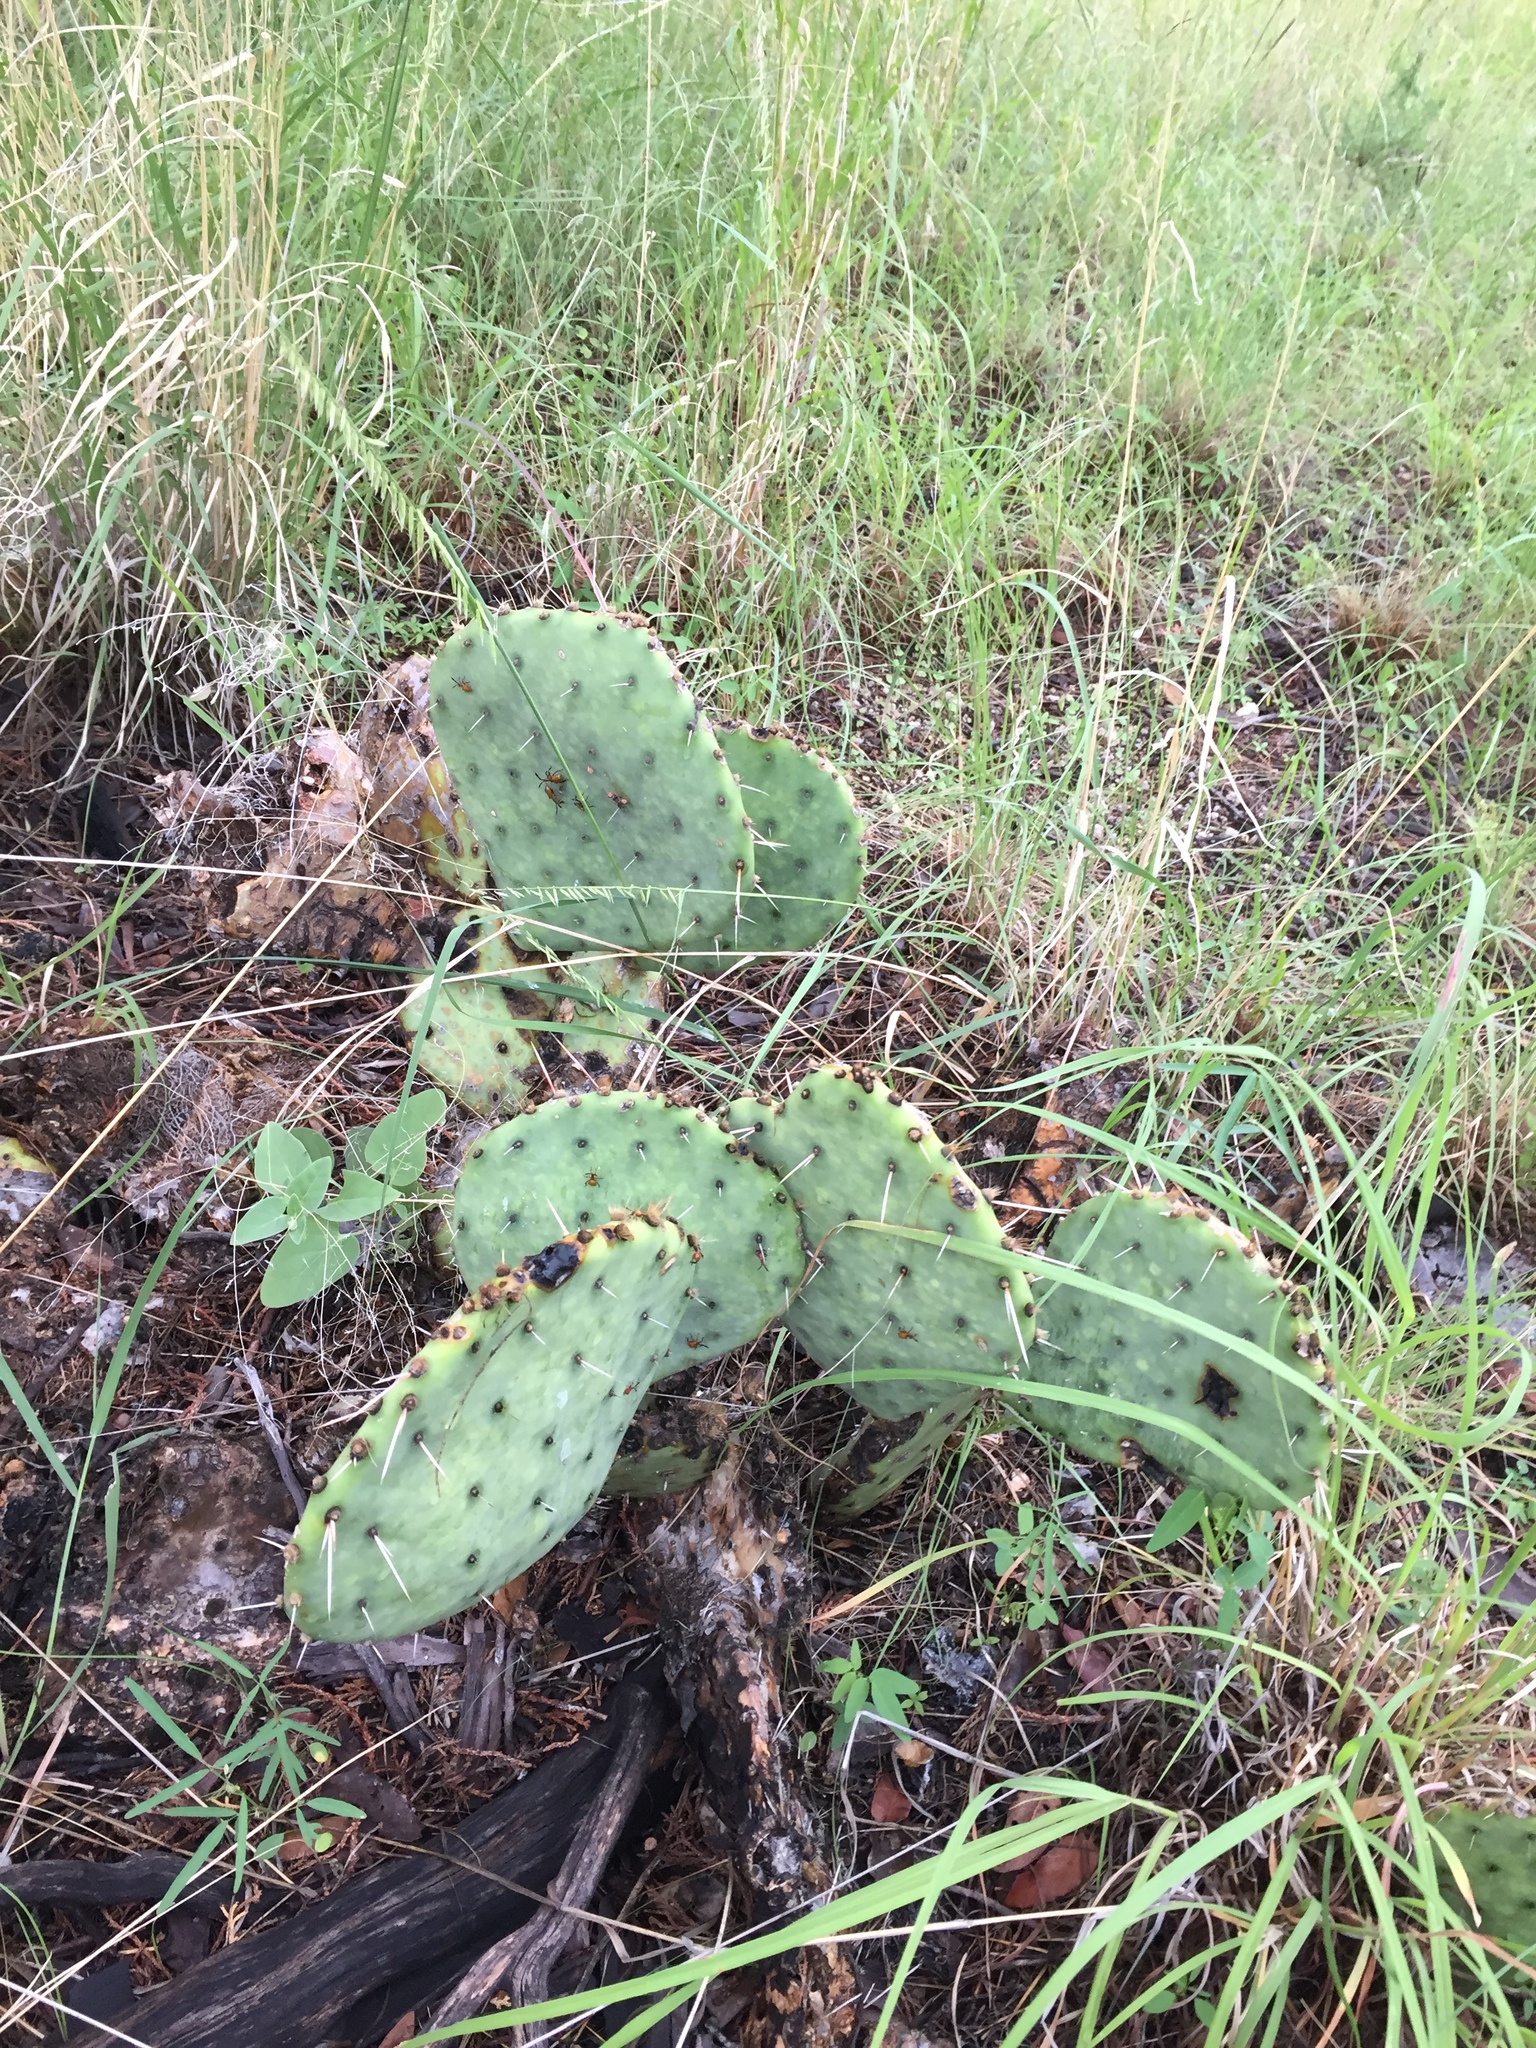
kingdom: Plantae
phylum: Tracheophyta
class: Magnoliopsida
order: Caryophyllales
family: Cactaceae
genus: Opuntia
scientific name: Opuntia chlorotica
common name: Dollar-joint prickly-pear
